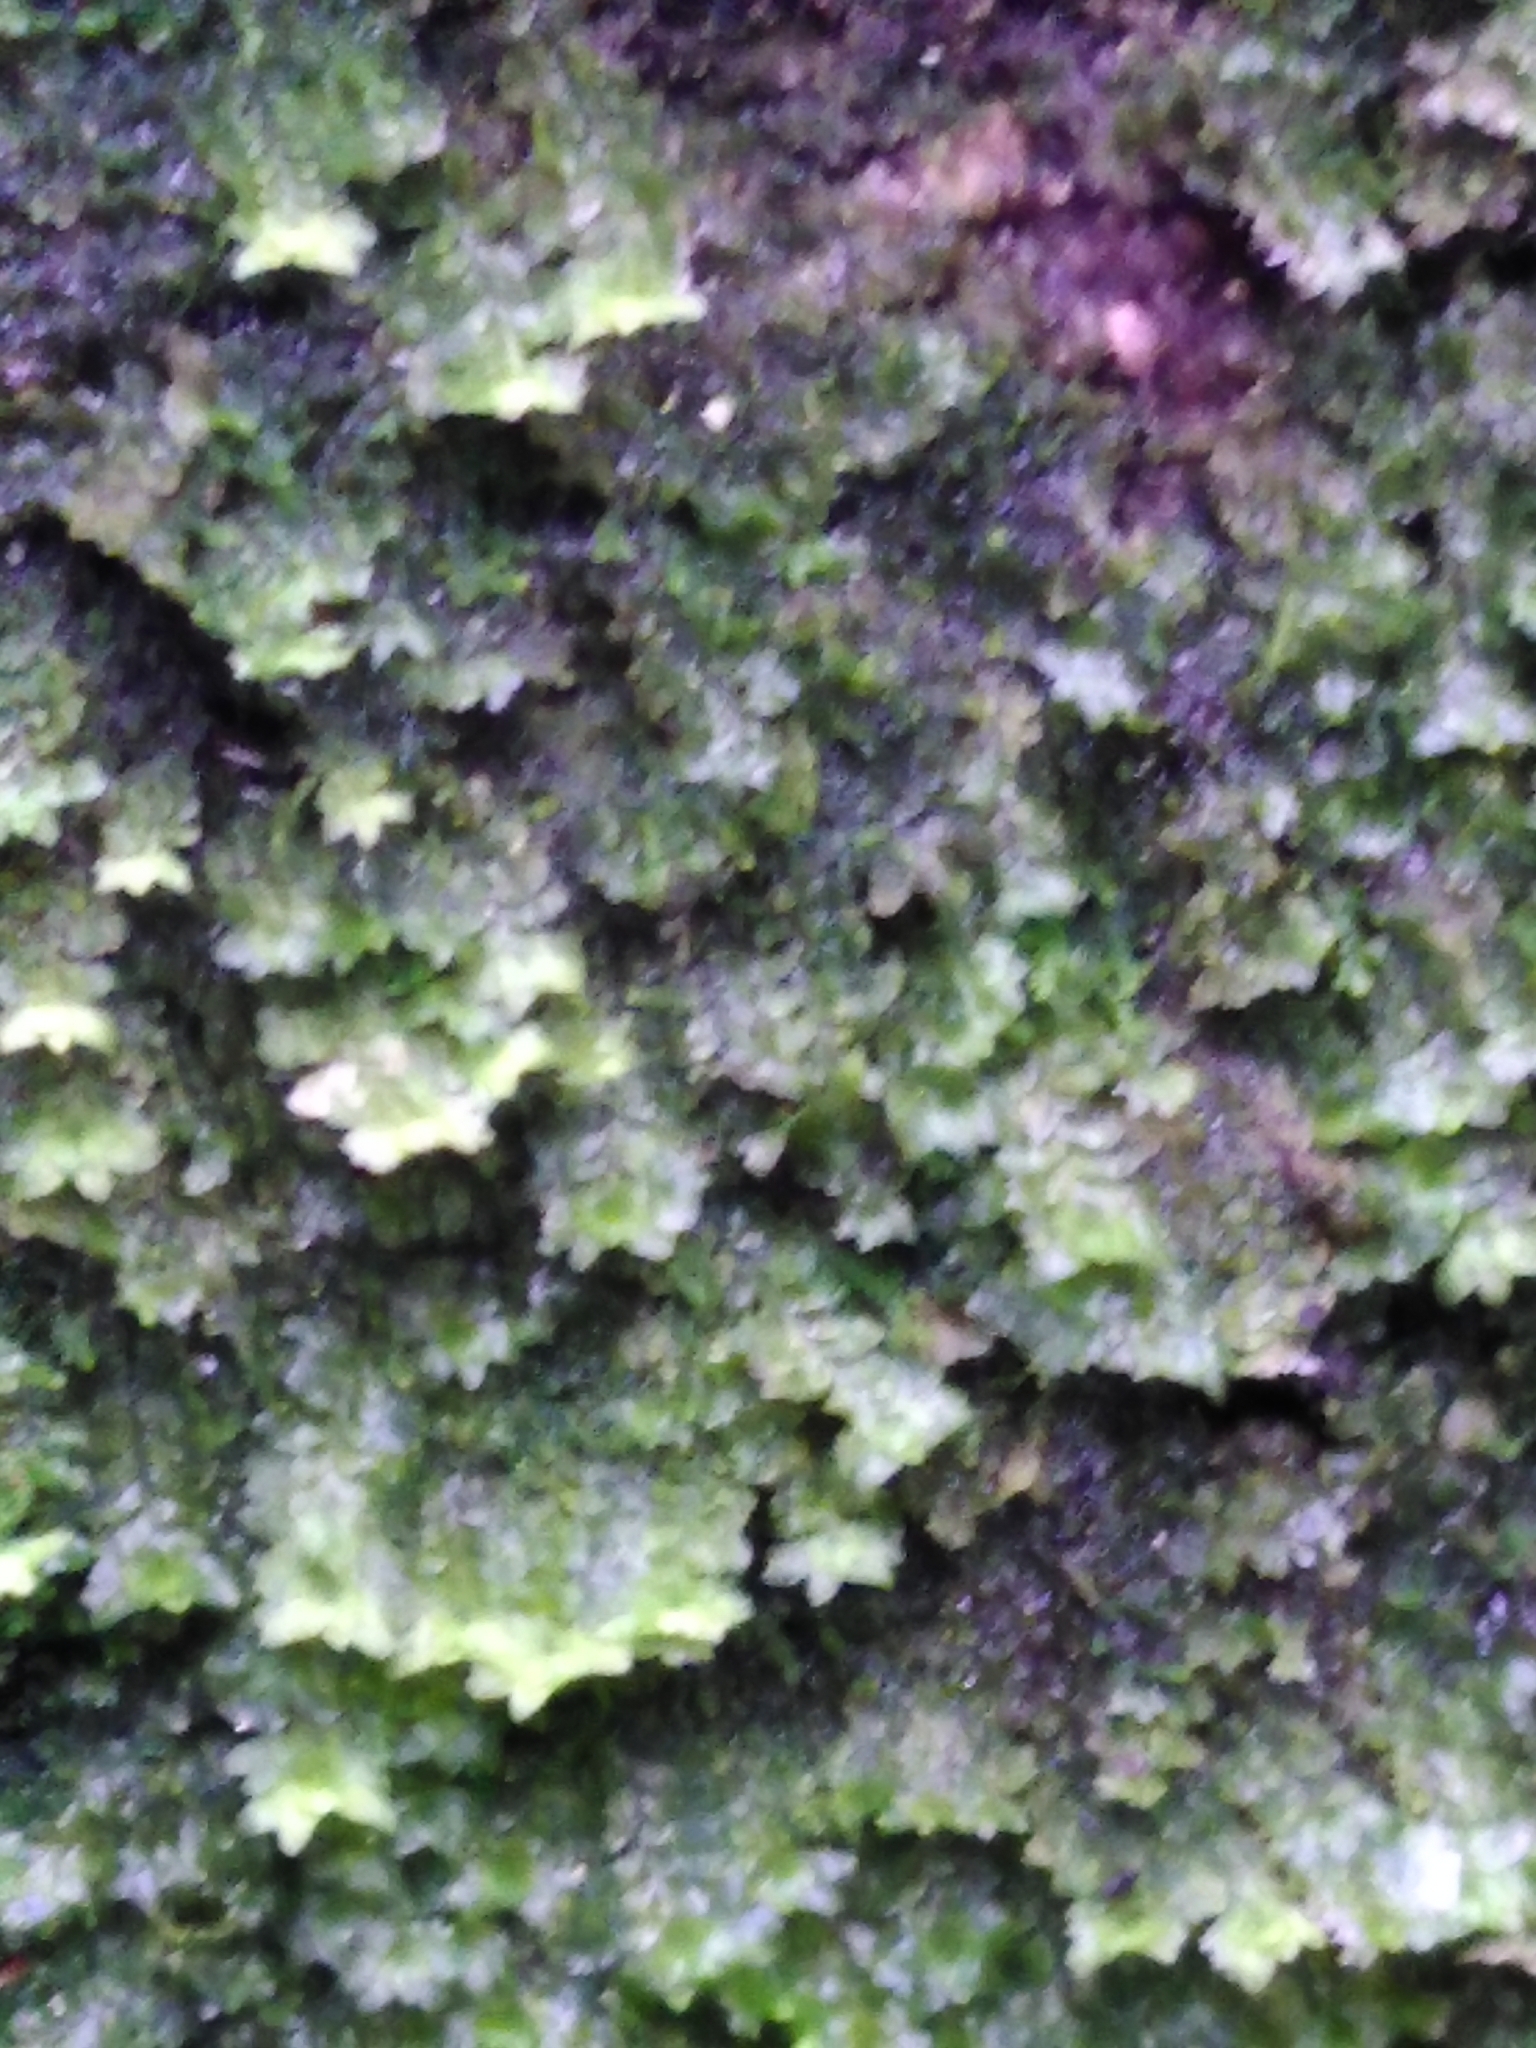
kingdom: Plantae
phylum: Marchantiophyta
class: Jungermanniopsida
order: Jungermanniales
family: Scapaniaceae
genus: Diplophyllum
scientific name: Diplophyllum albicans
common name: White earwort
